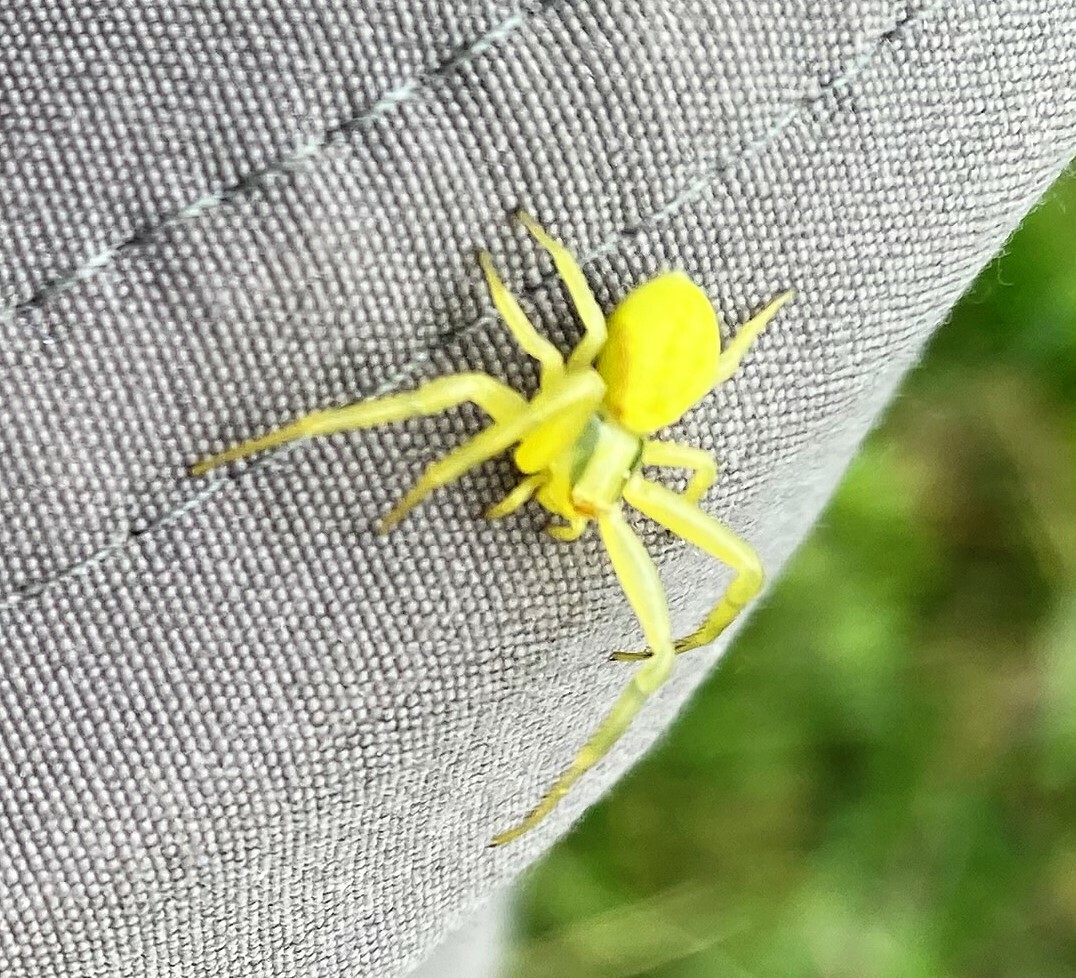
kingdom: Animalia
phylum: Arthropoda
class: Arachnida
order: Araneae
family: Thomisidae
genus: Misumena
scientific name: Misumena vatia
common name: Goldenrod crab spider
